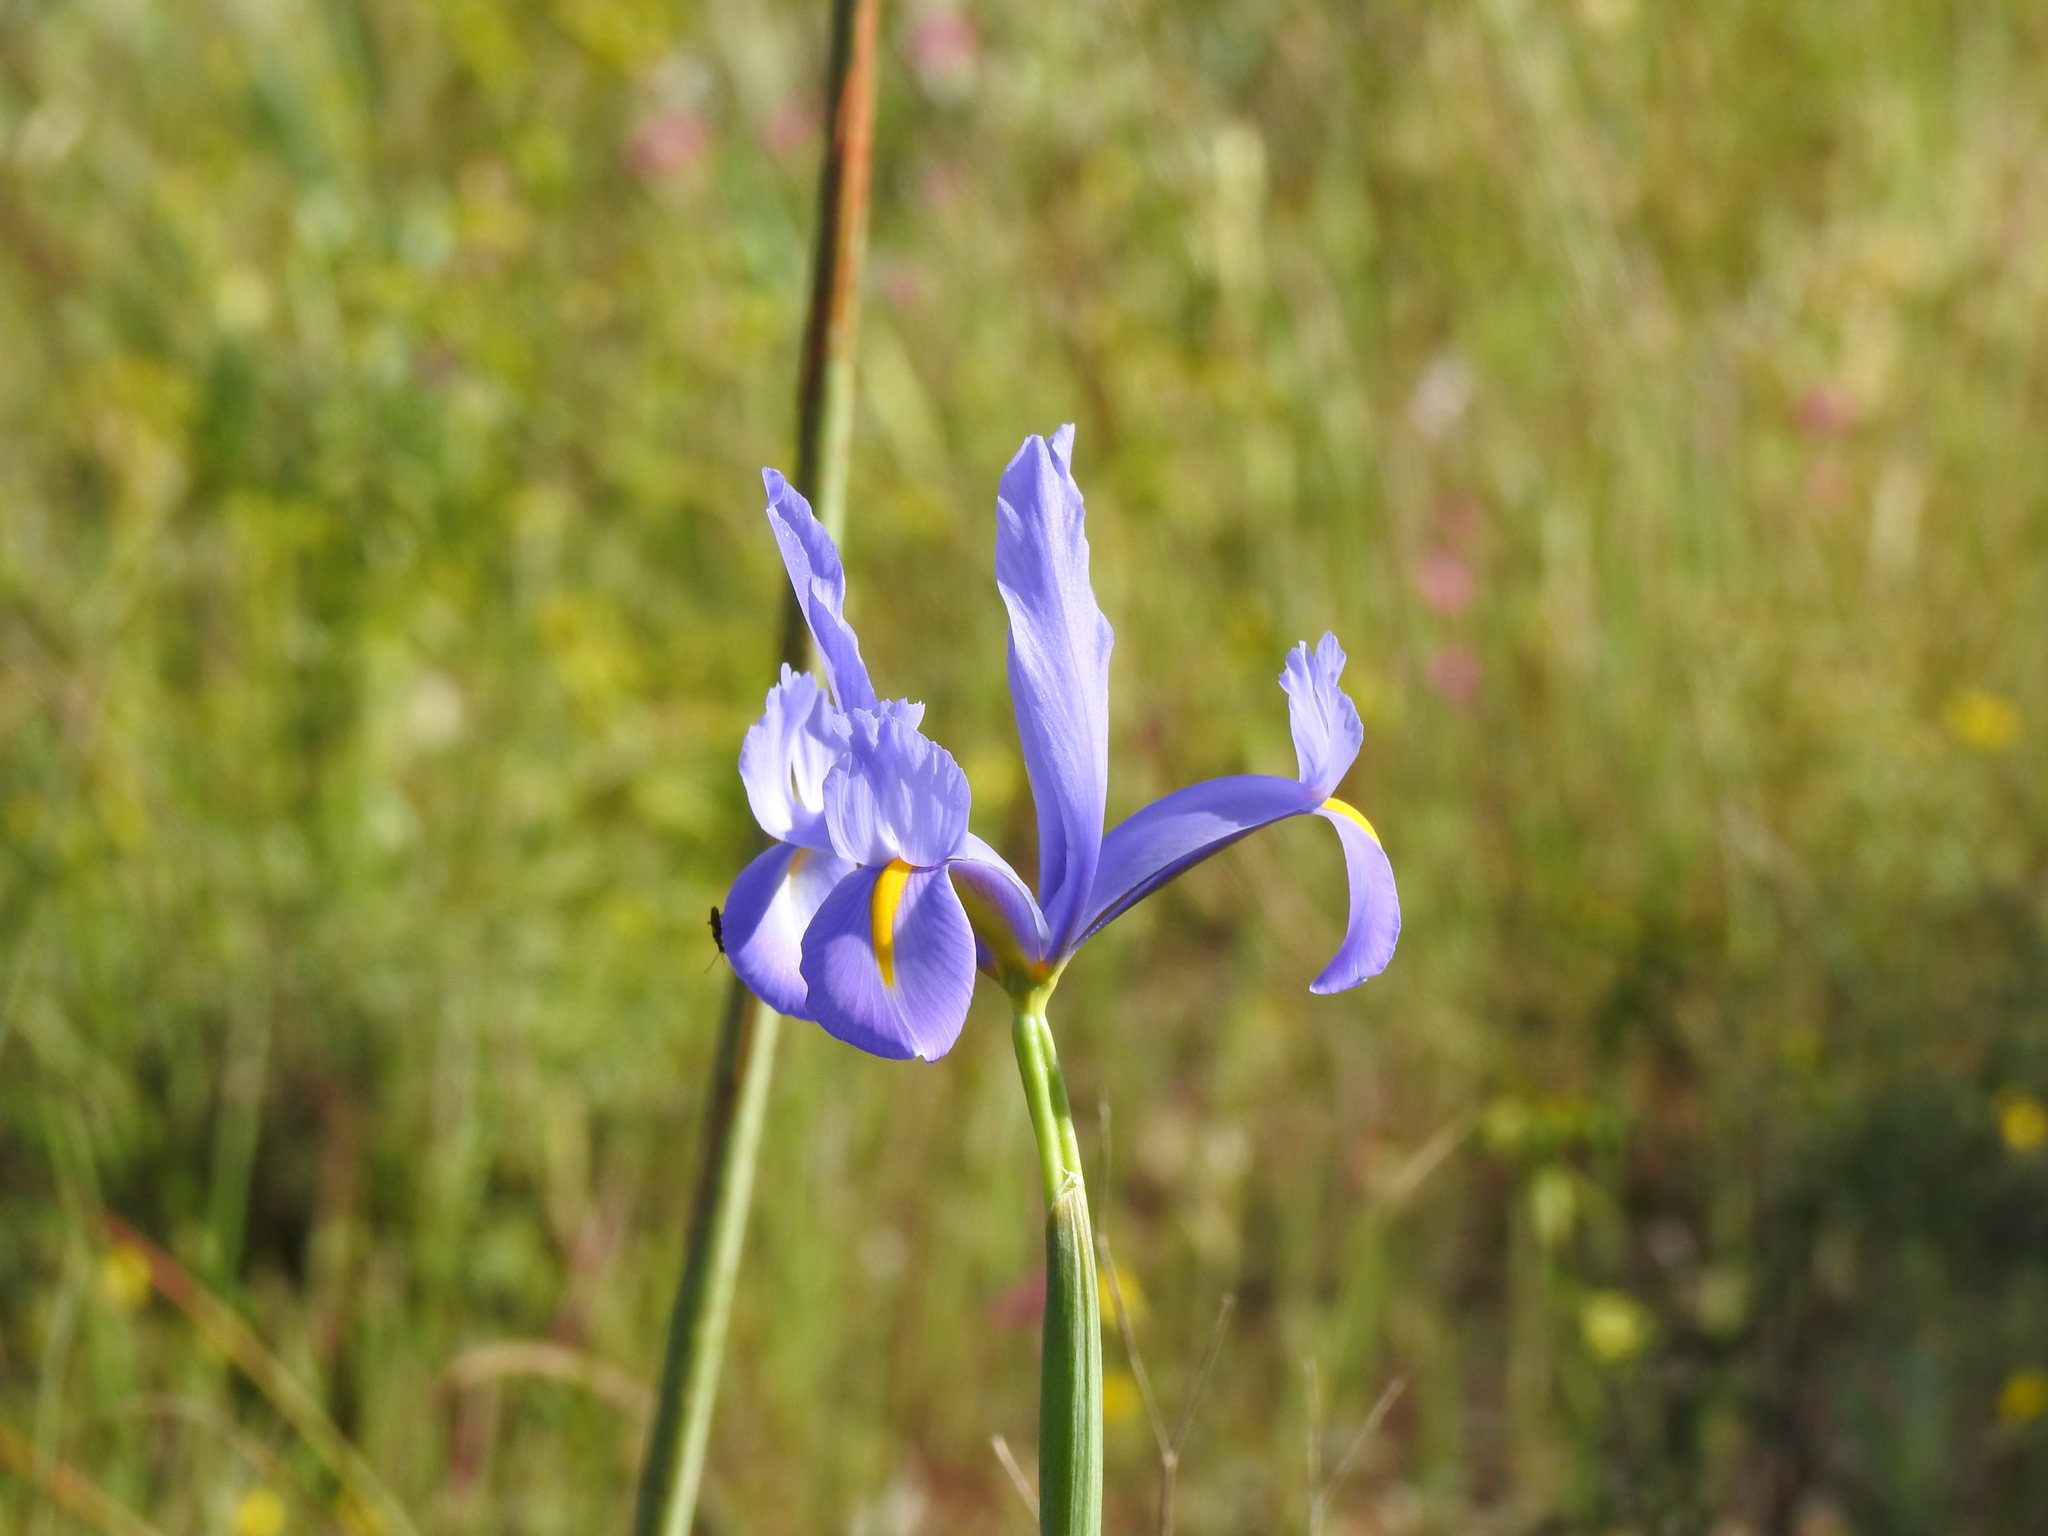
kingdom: Plantae
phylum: Tracheophyta
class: Liliopsida
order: Asparagales
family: Iridaceae
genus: Iris
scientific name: Iris xiphium
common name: Spanish iris
